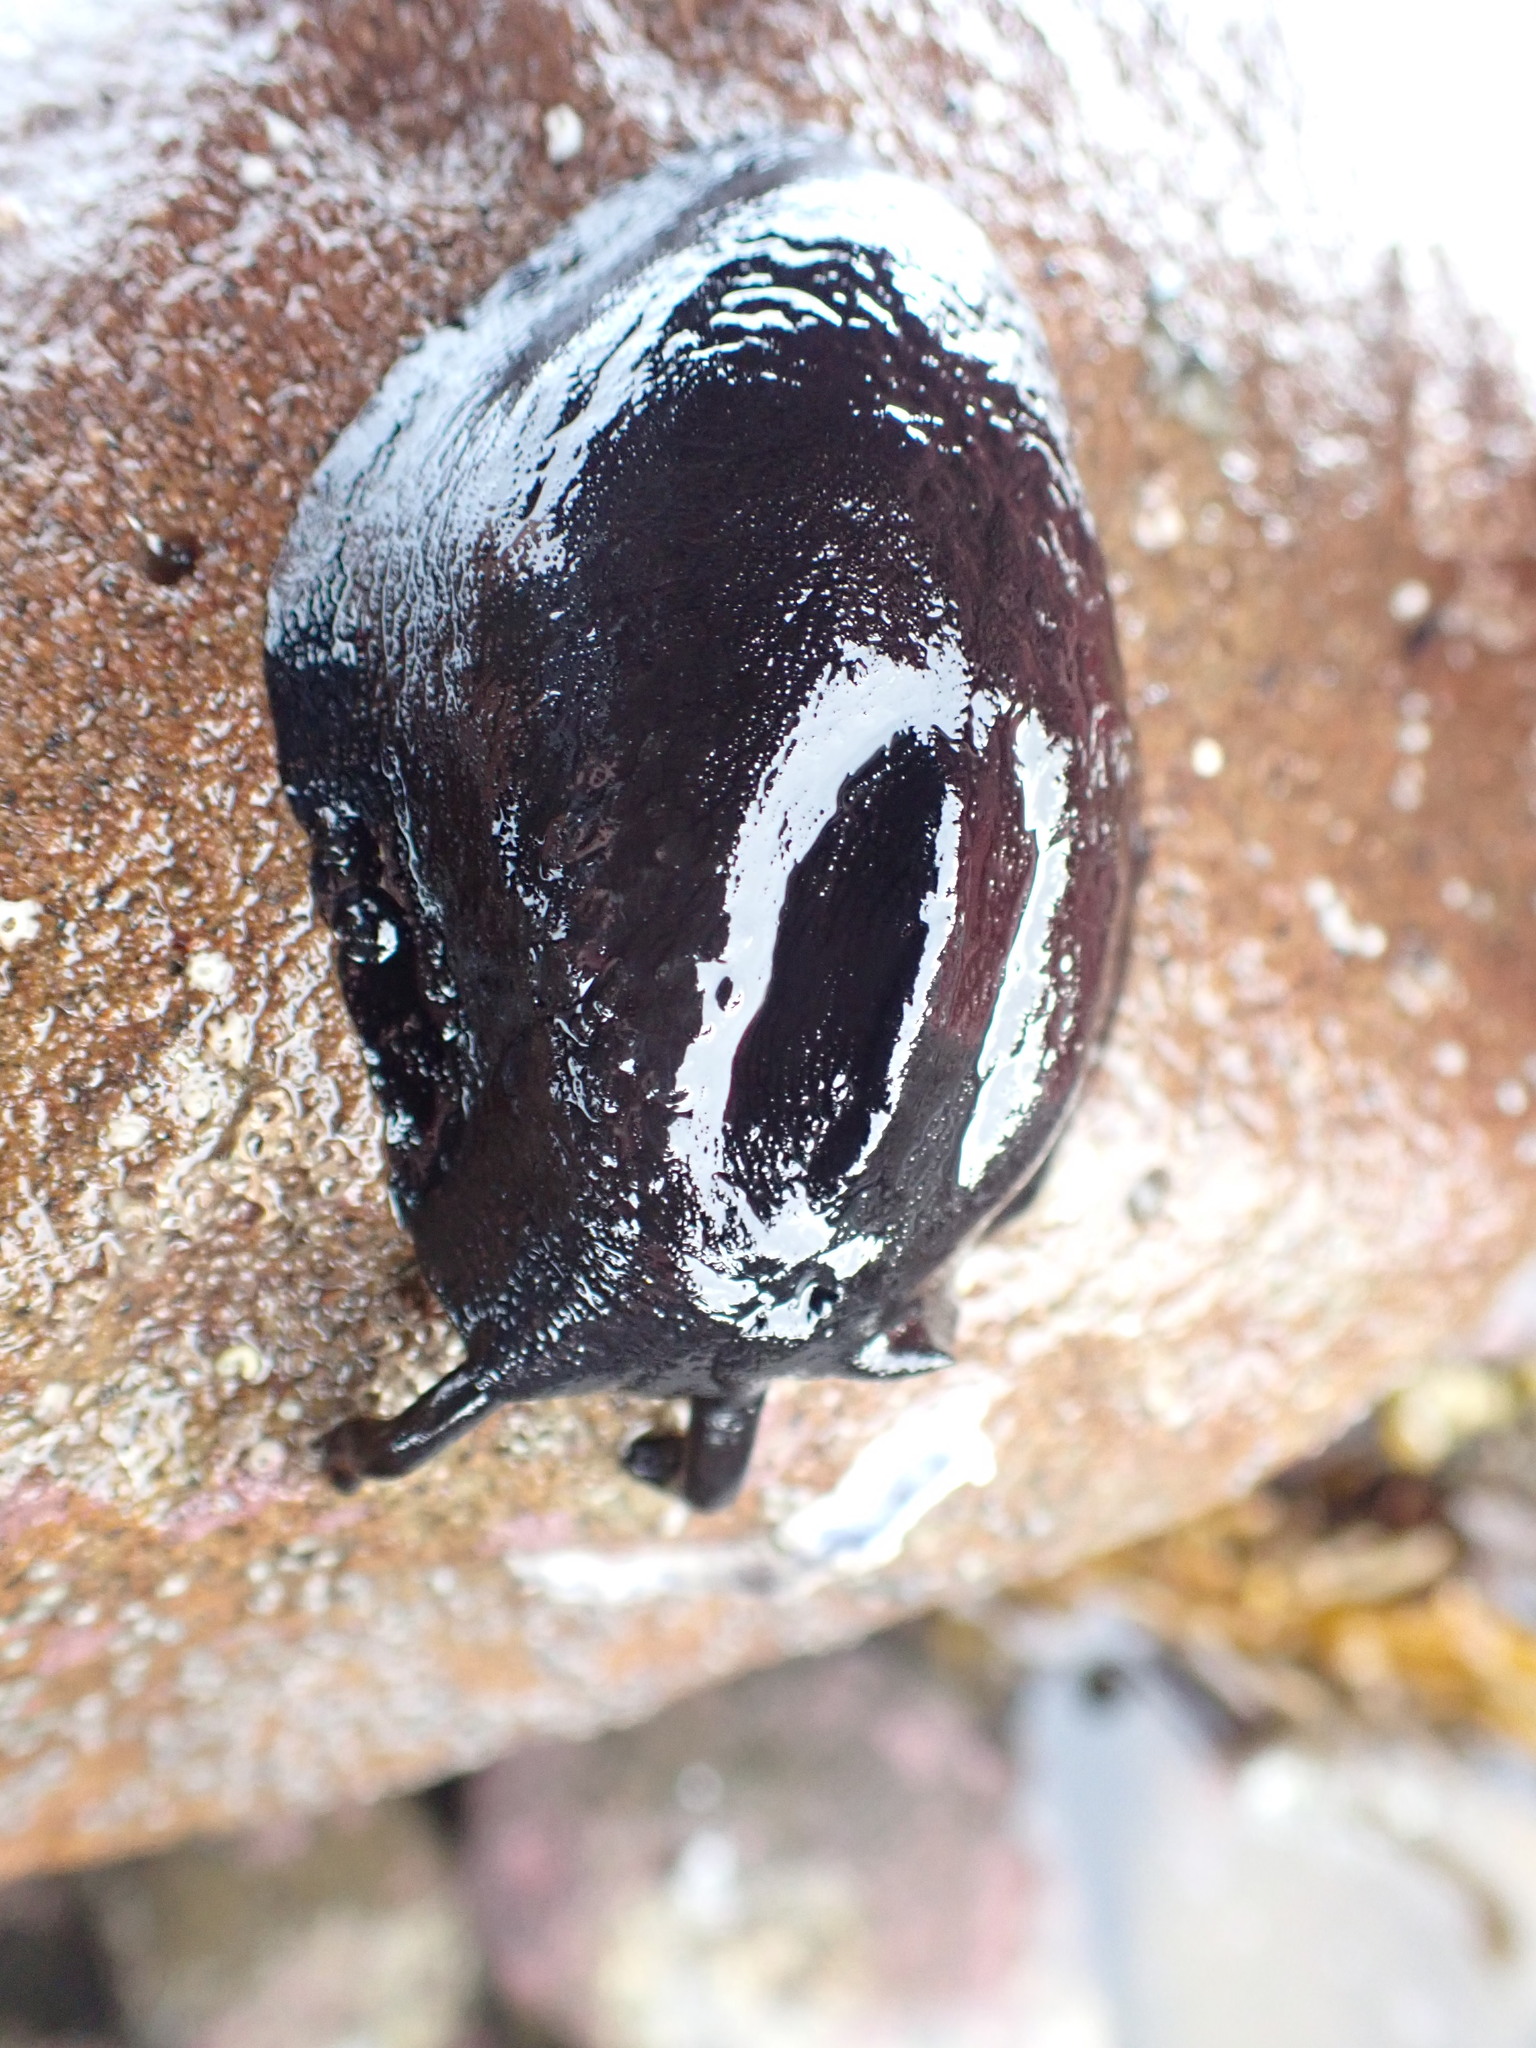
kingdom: Animalia
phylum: Mollusca
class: Gastropoda
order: Lepetellida
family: Fissurellidae
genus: Scutus
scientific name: Scutus breviculus
